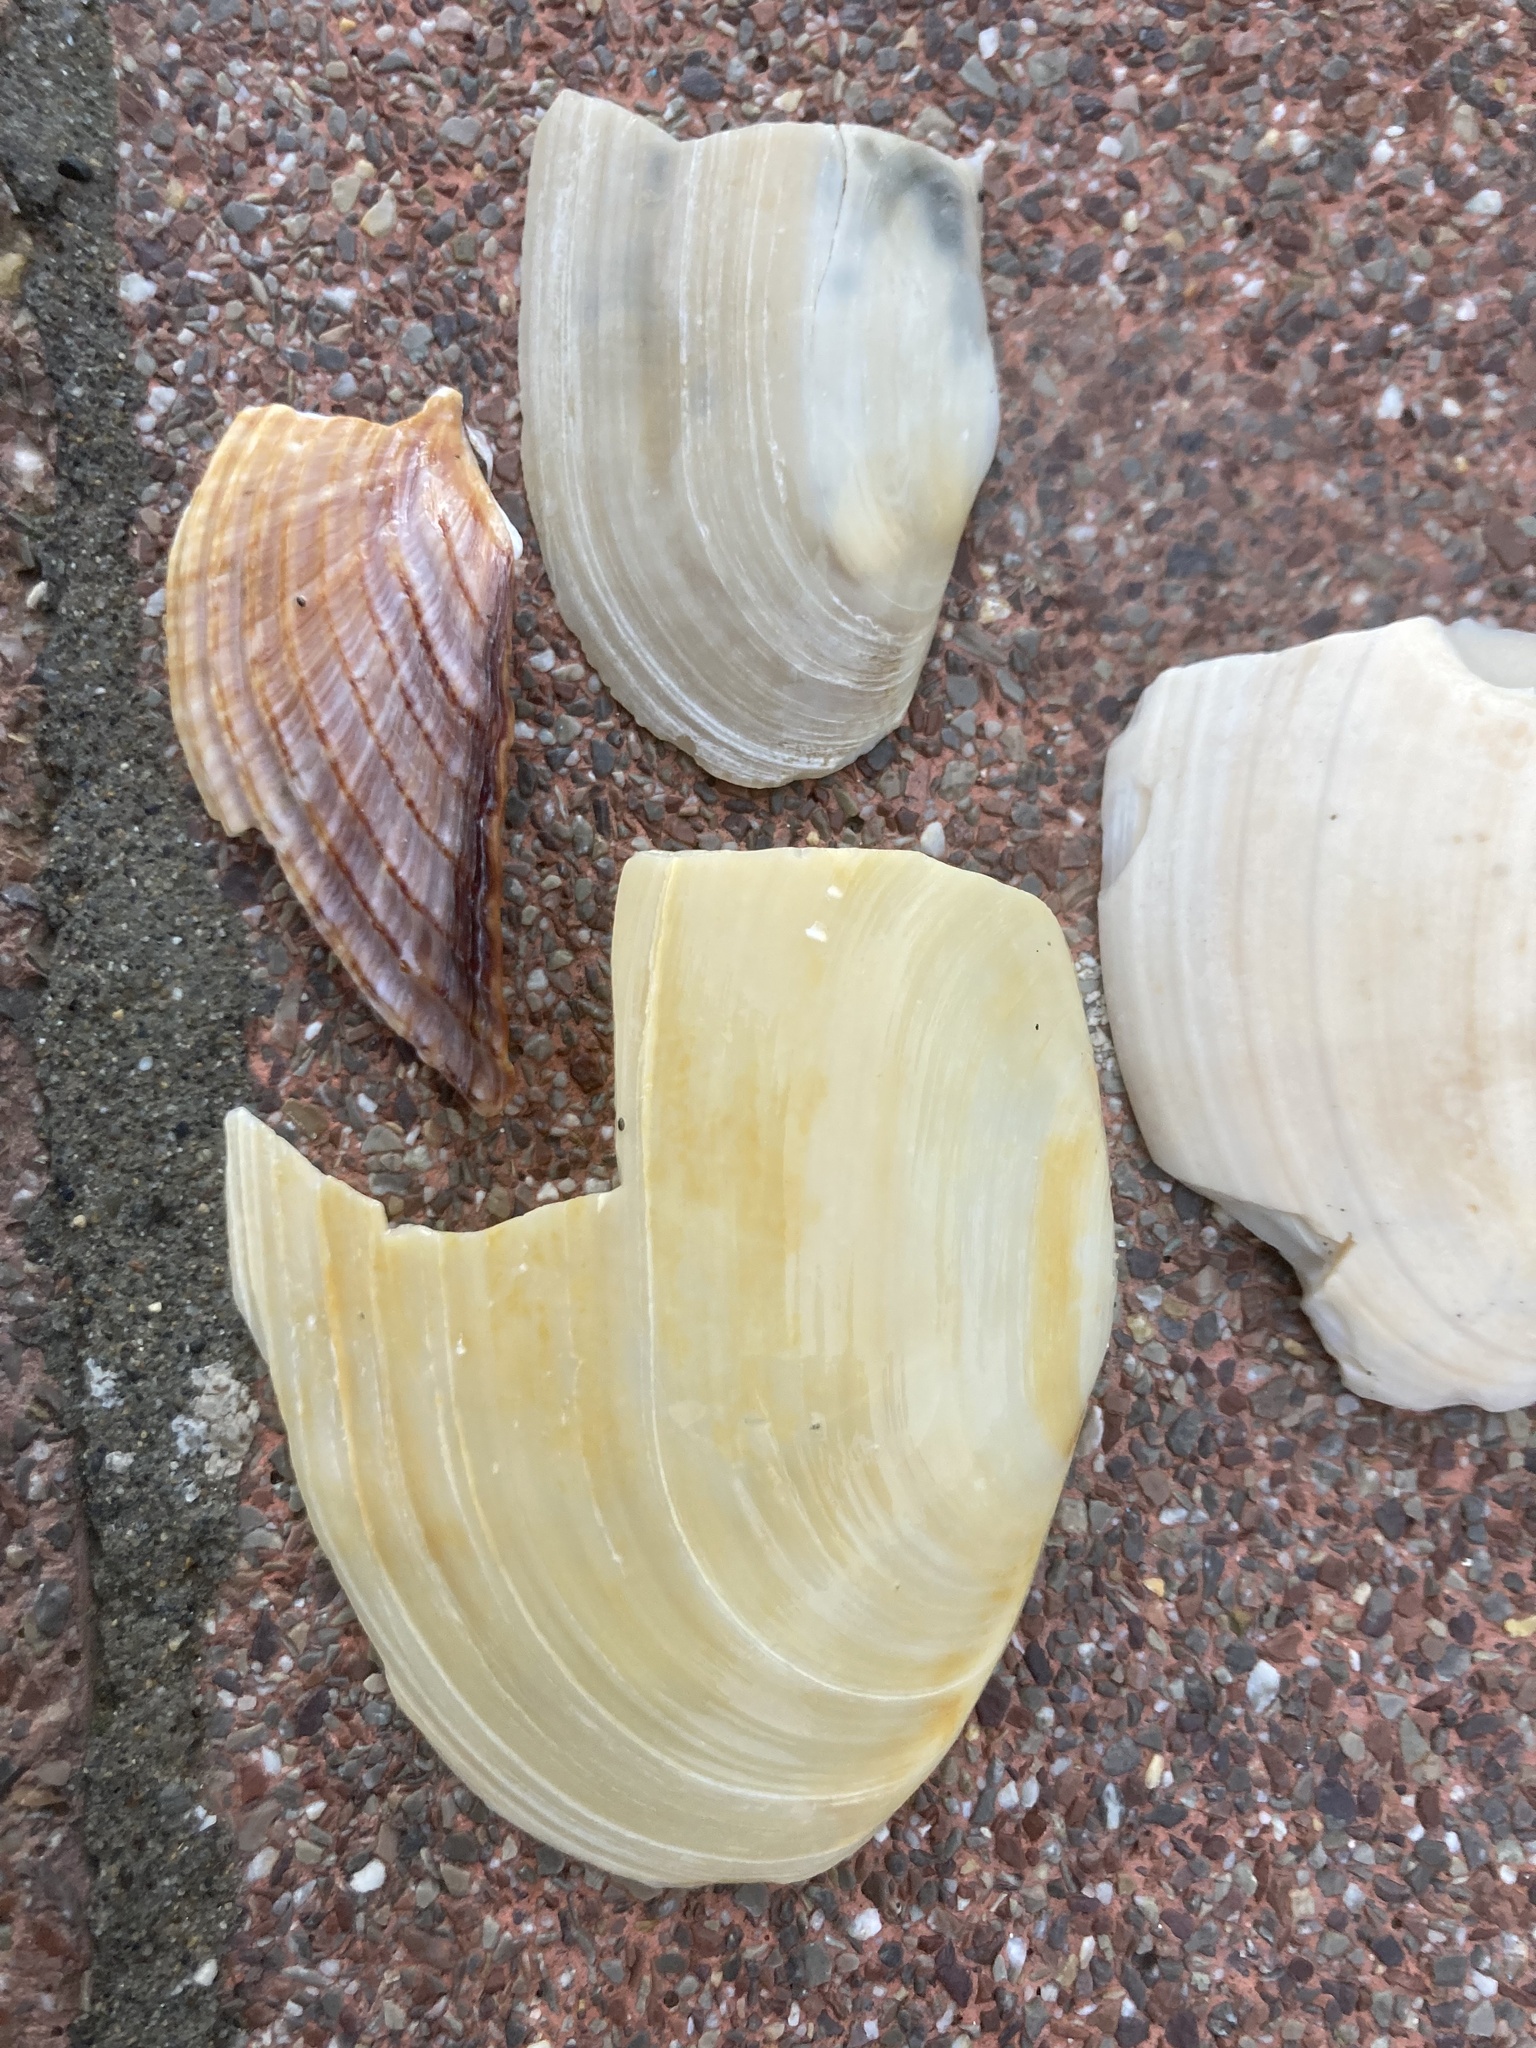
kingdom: Animalia
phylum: Mollusca
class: Bivalvia
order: Myida
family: Myidae
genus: Mya
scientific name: Mya arenaria
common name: Soft-shelled clam
